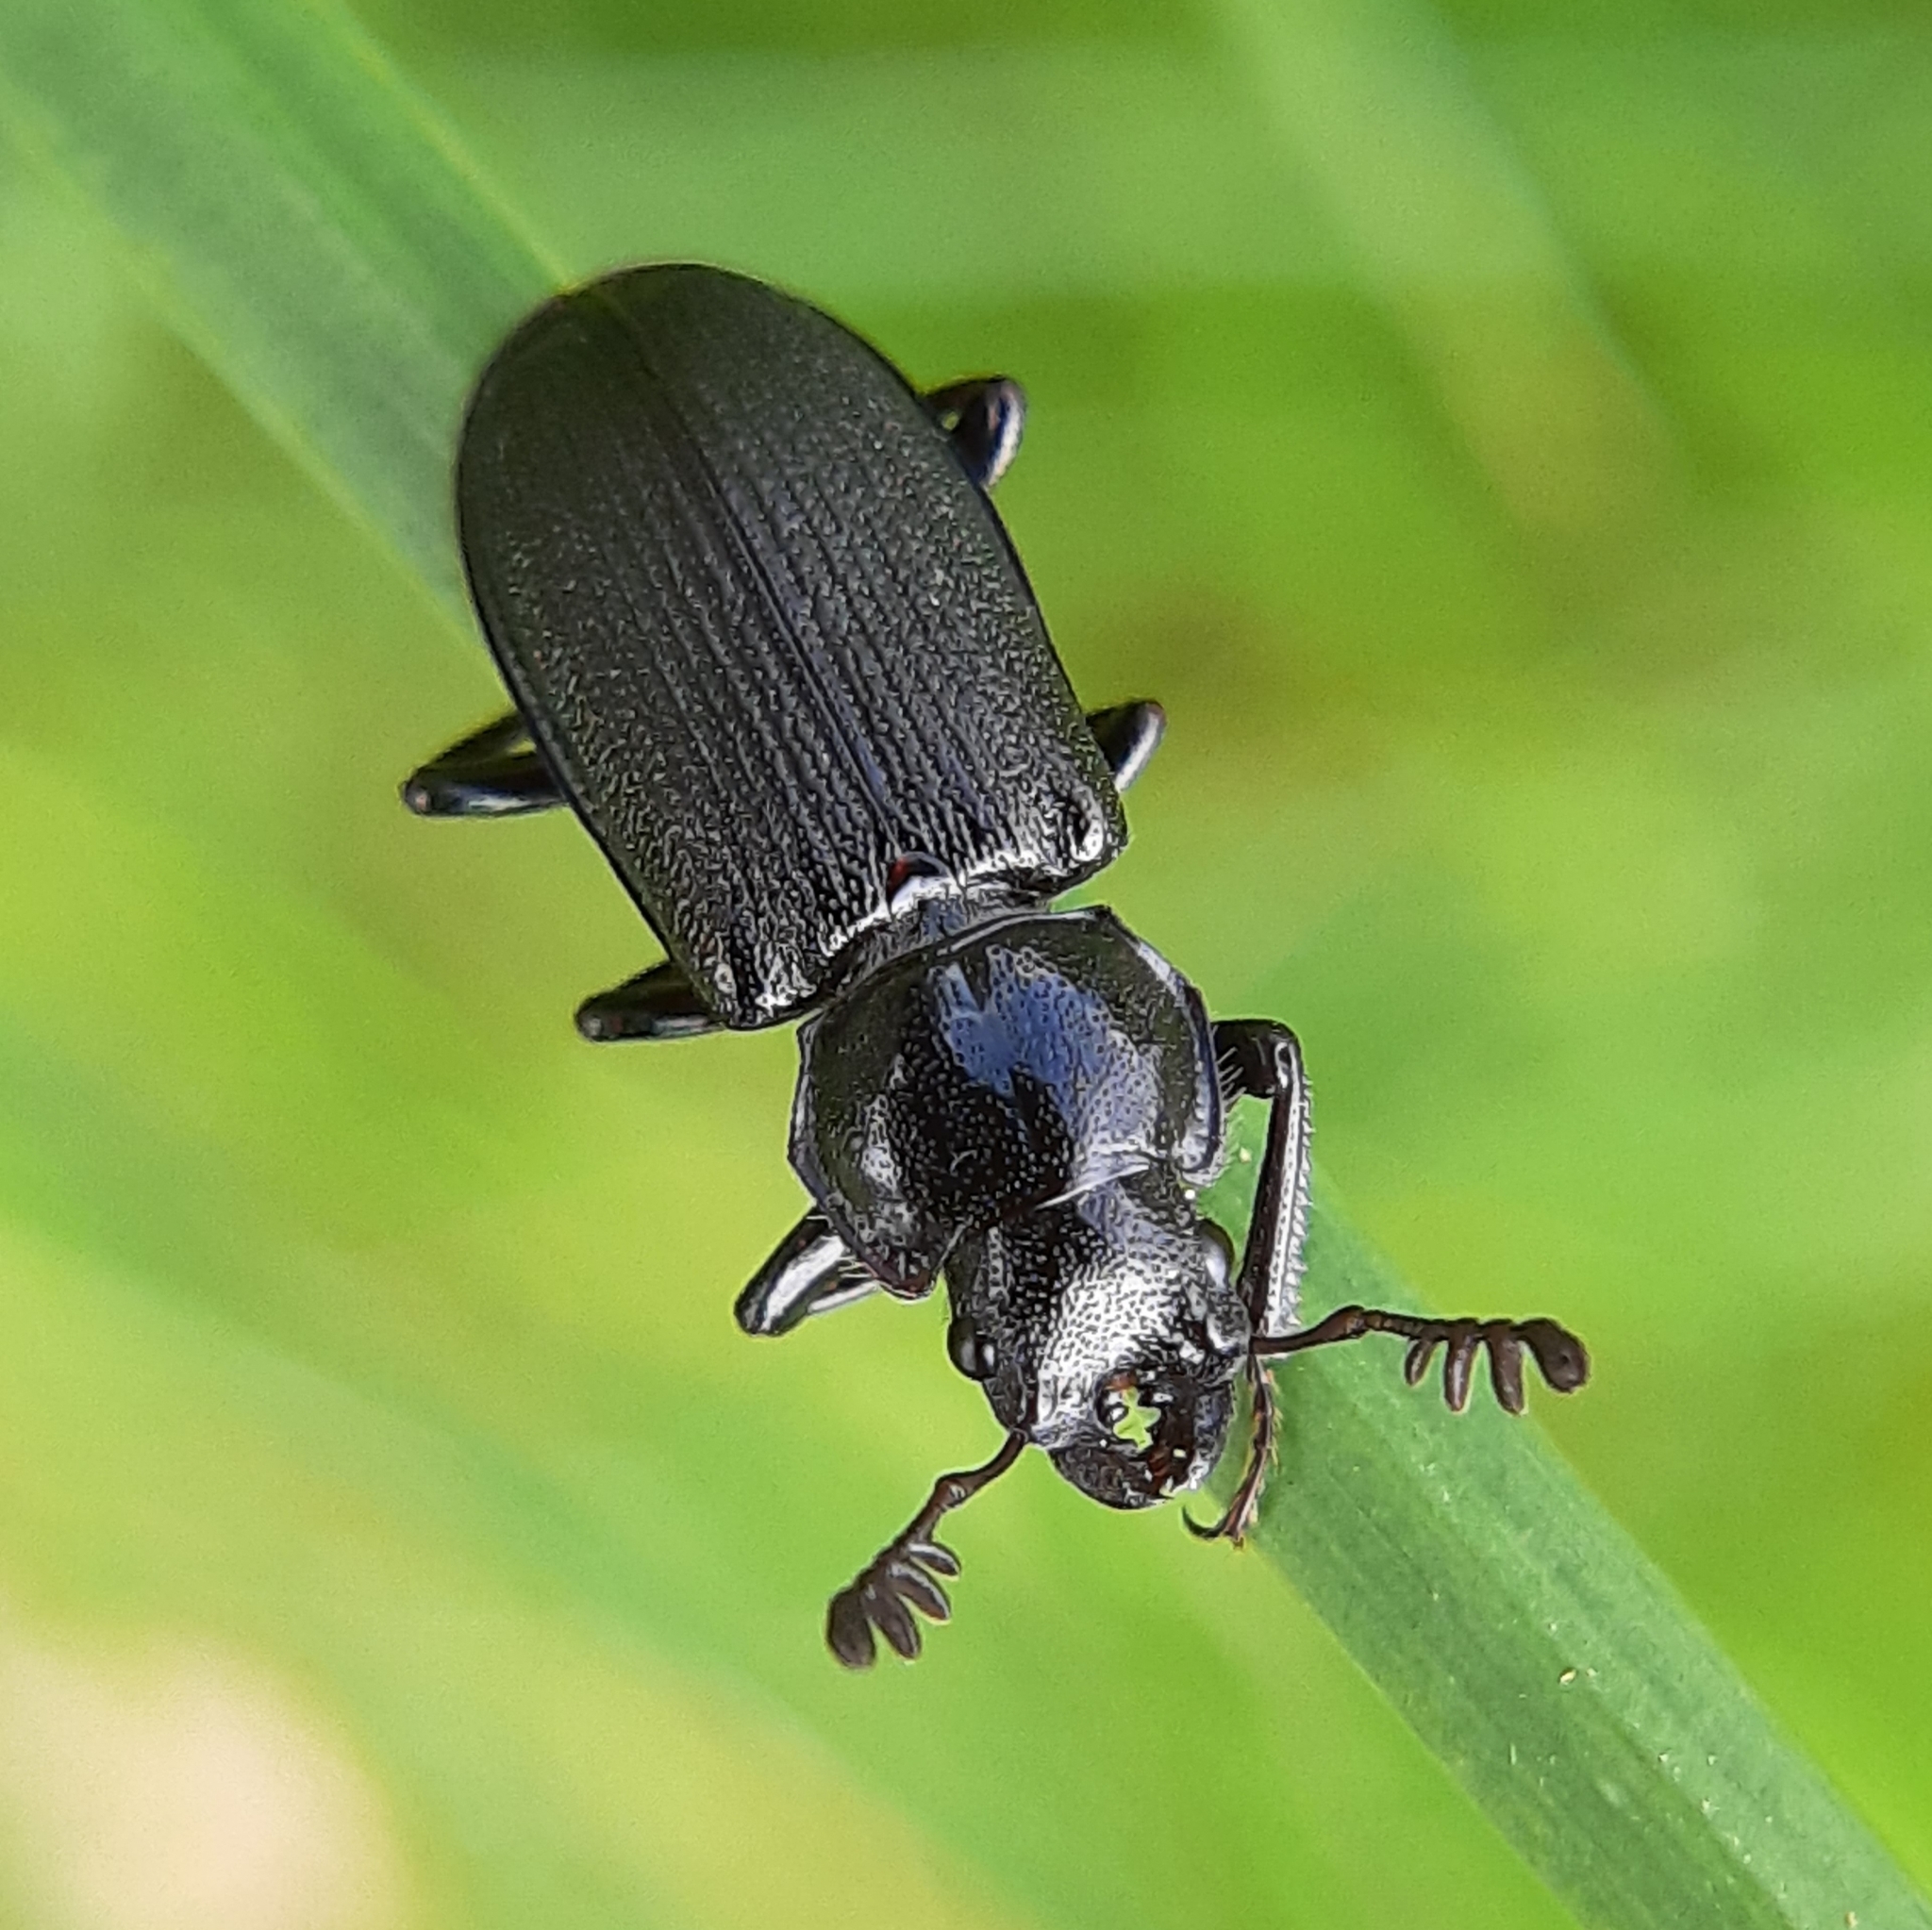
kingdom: Animalia
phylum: Arthropoda
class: Insecta
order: Coleoptera
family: Lucanidae
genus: Platycerus
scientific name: Platycerus depressus
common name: Aspen stag beetle
